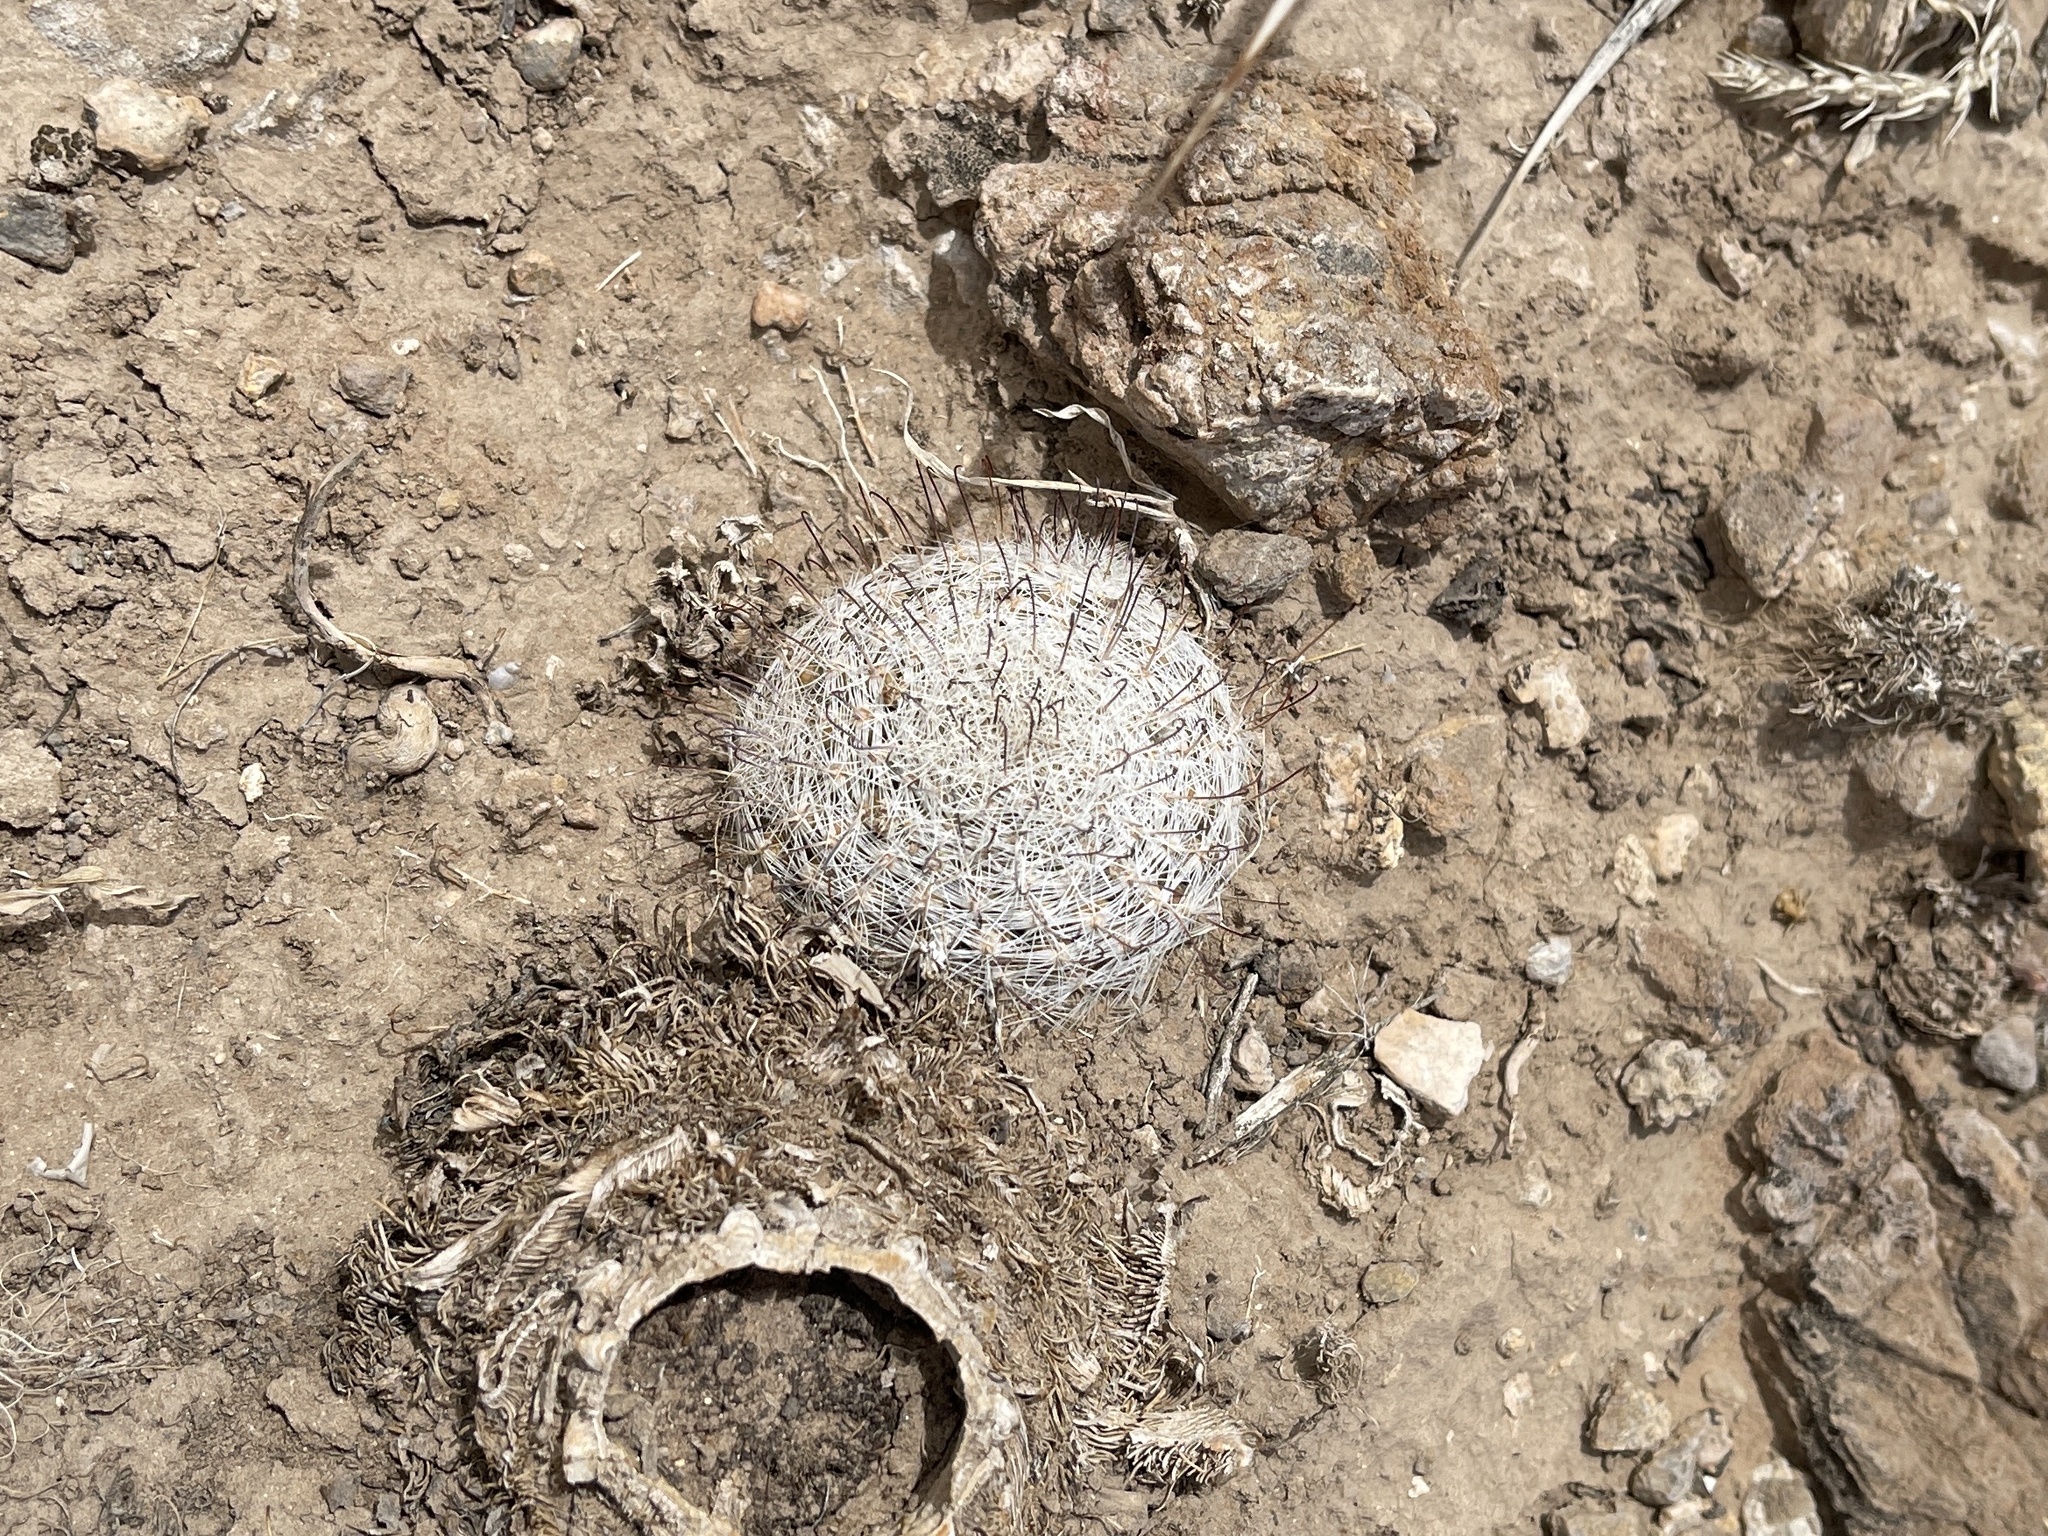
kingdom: Plantae
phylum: Tracheophyta
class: Magnoliopsida
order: Caryophyllales
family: Cactaceae
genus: Cochemiea
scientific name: Cochemiea grahamii
